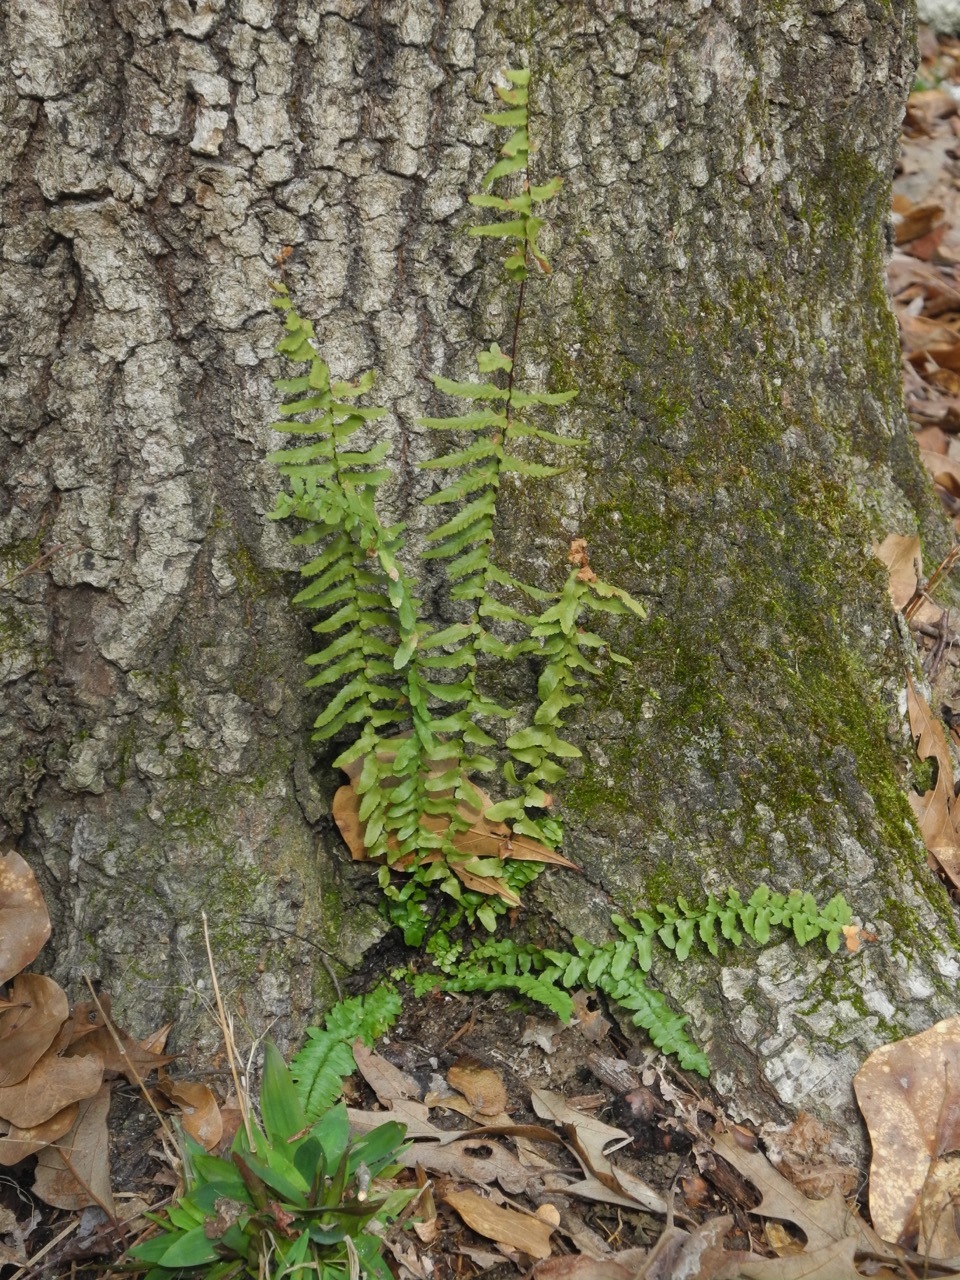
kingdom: Plantae
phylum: Tracheophyta
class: Polypodiopsida
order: Polypodiales
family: Aspleniaceae
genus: Asplenium
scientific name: Asplenium platyneuron
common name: Ebony spleenwort
